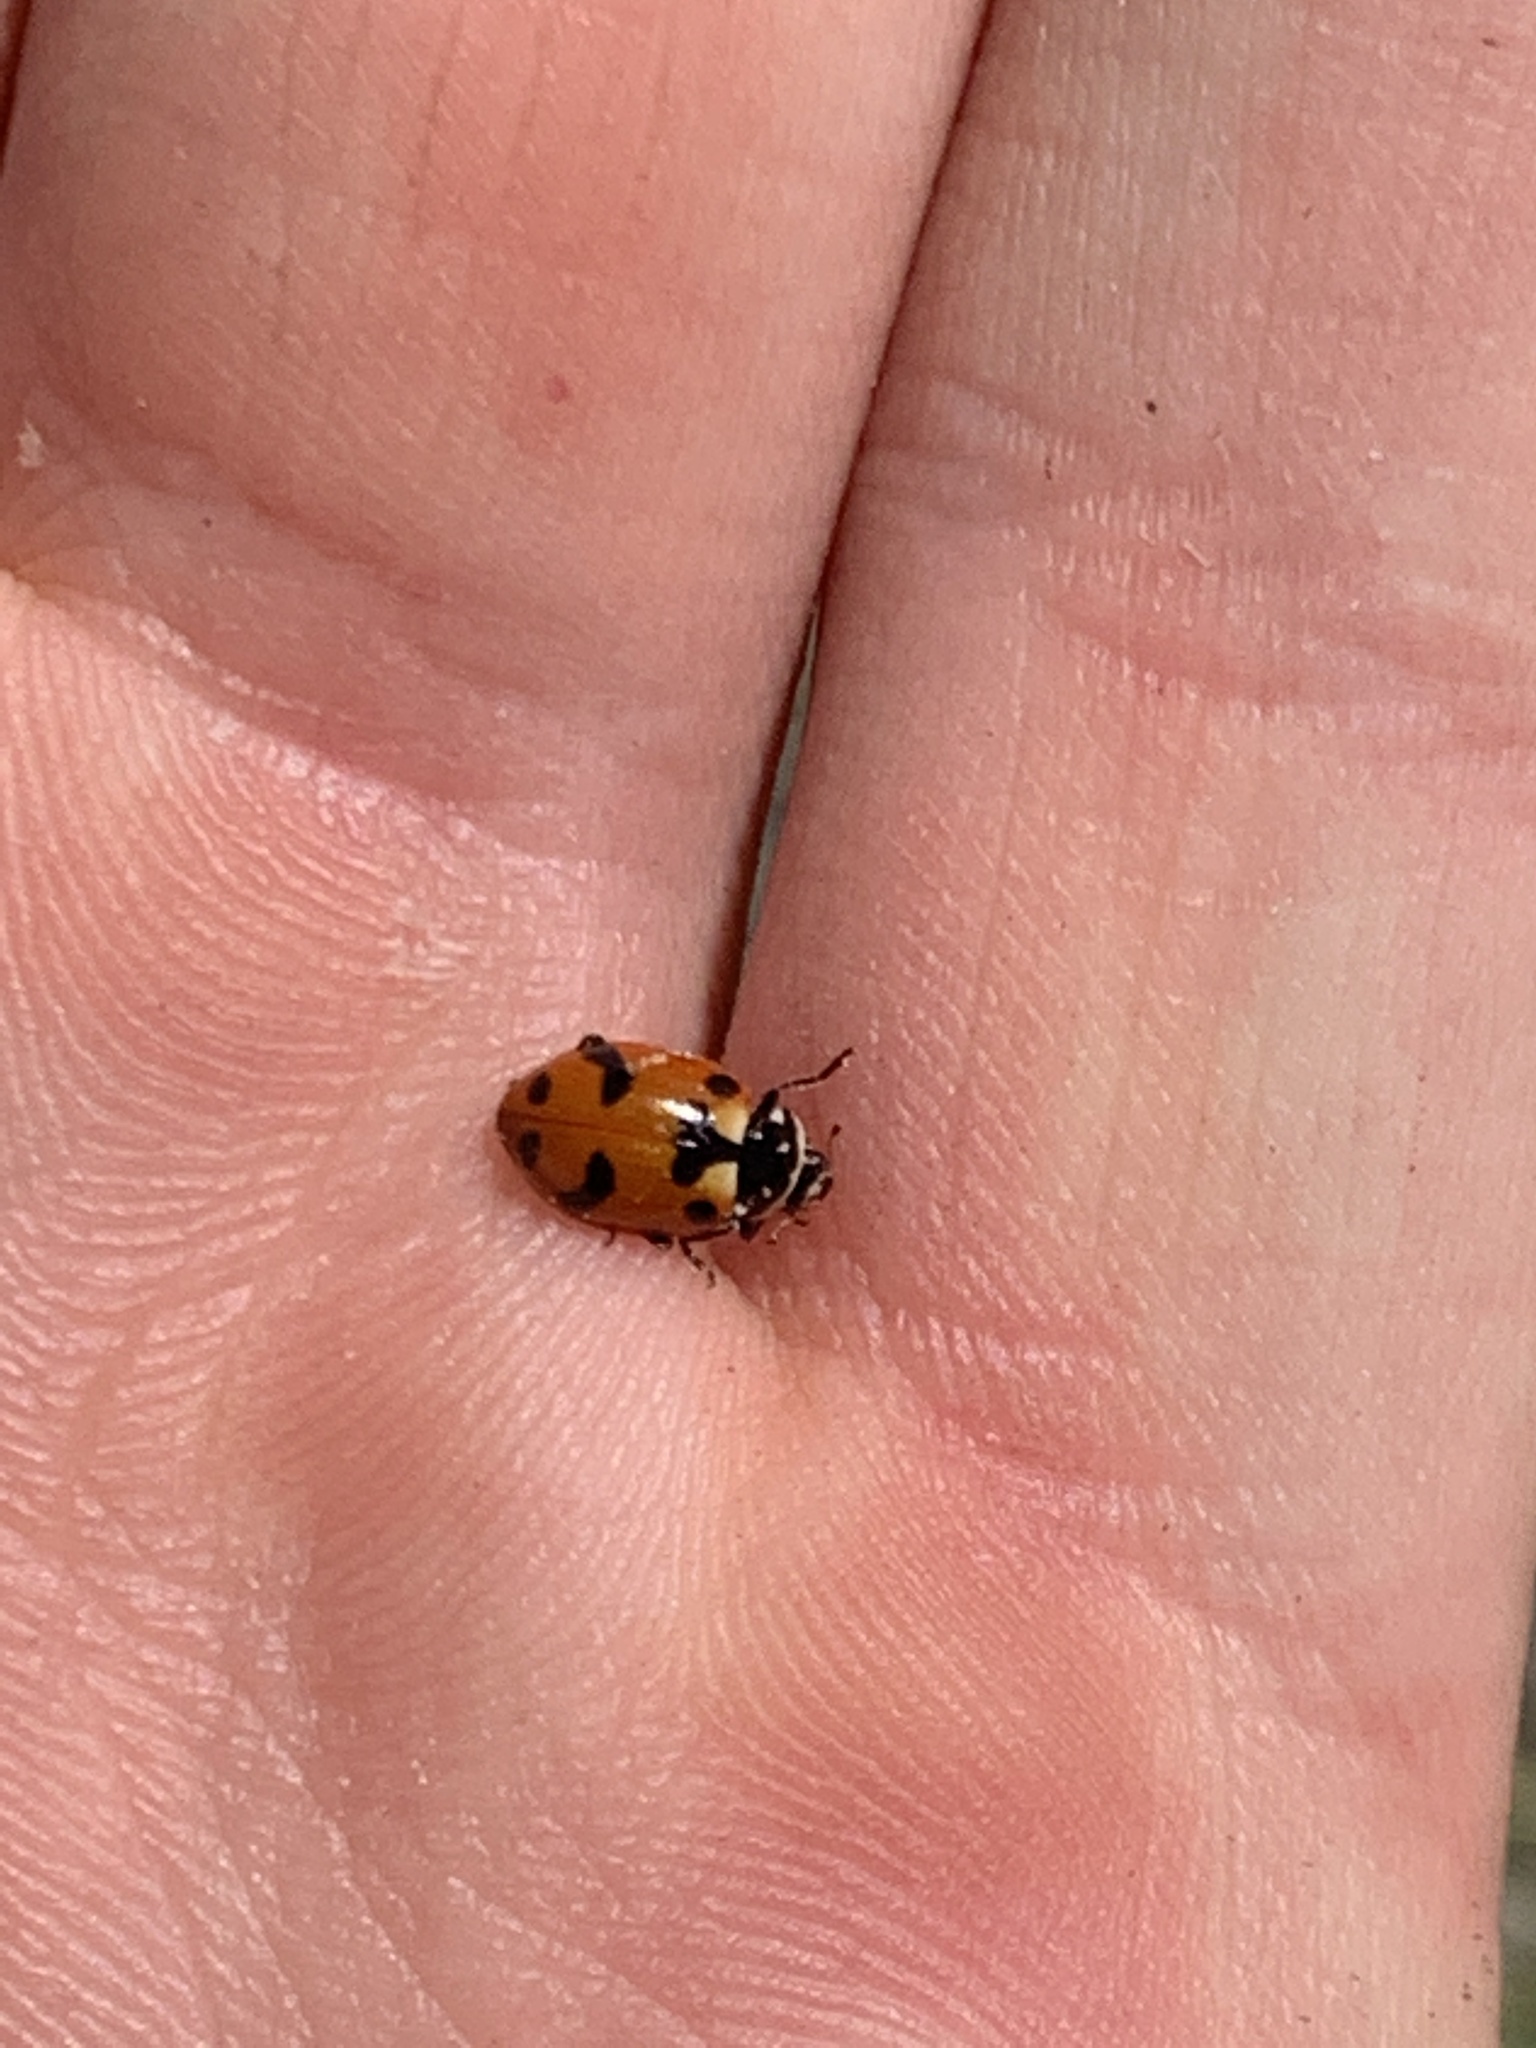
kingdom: Animalia
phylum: Arthropoda
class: Insecta
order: Coleoptera
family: Coccinellidae
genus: Hippodamia
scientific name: Hippodamia caseyi
